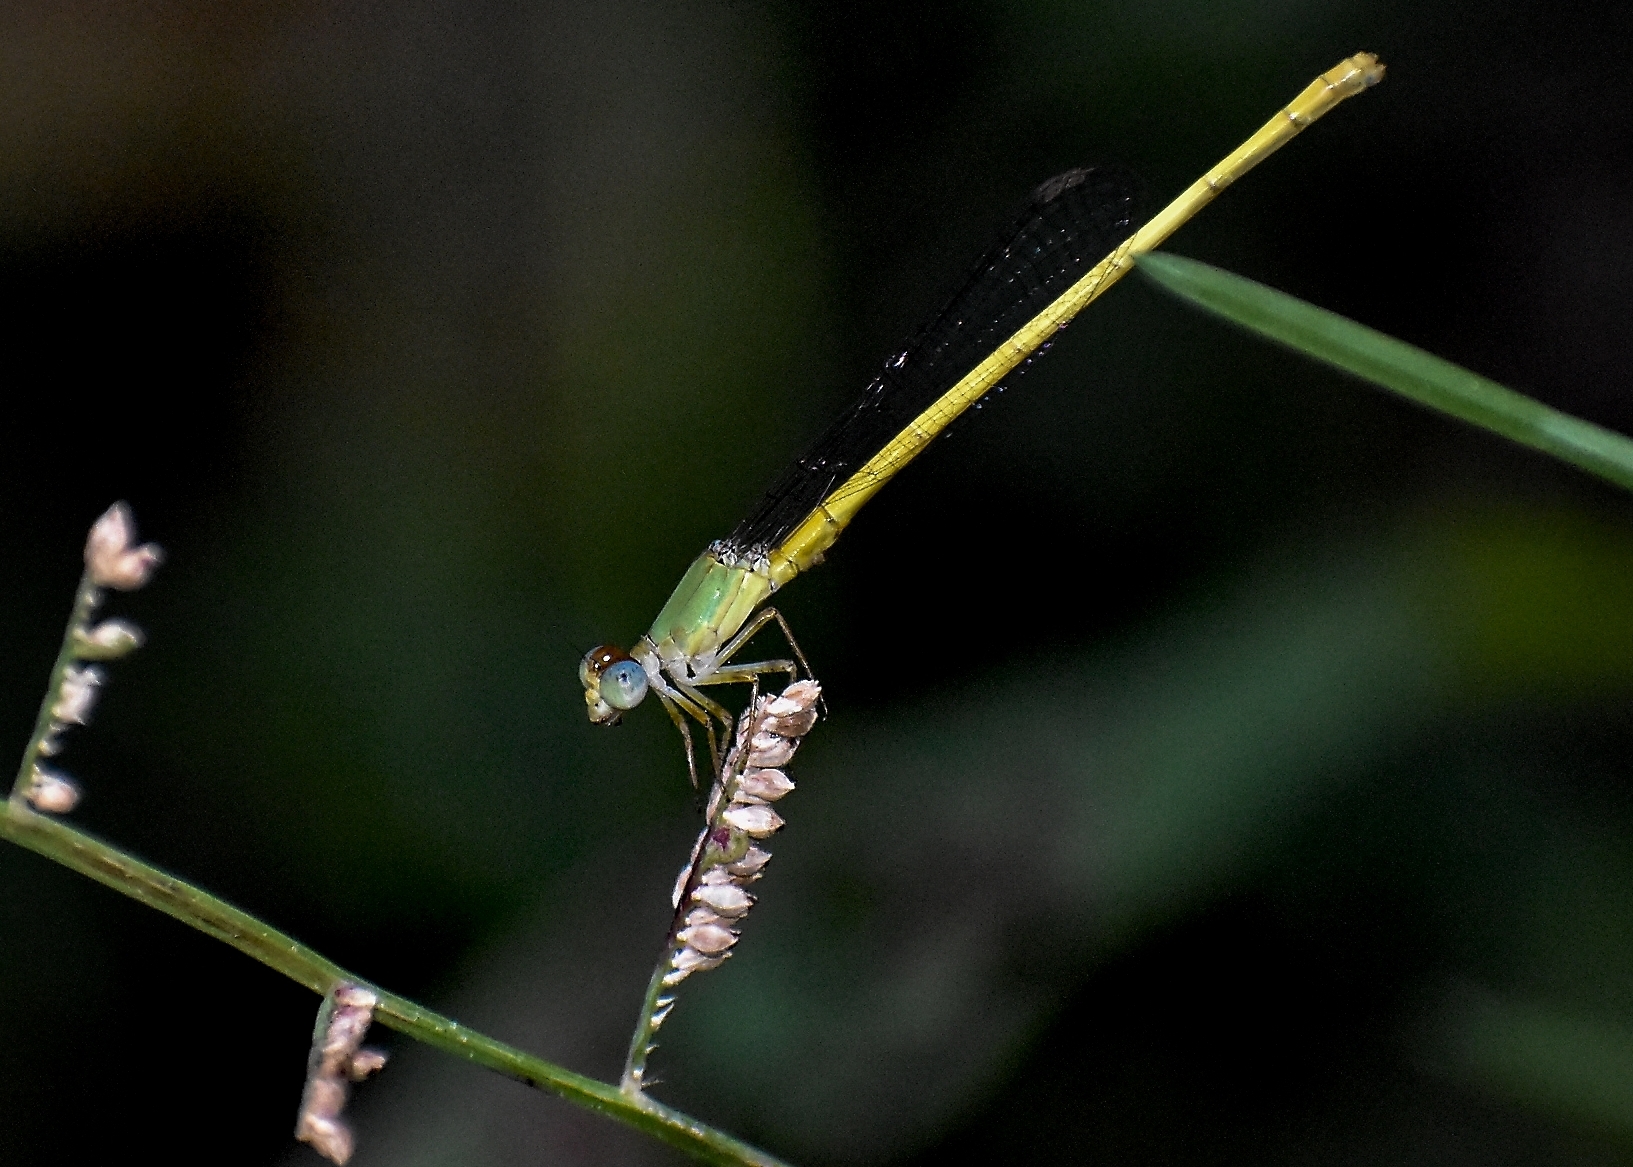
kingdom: Animalia
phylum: Arthropoda
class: Insecta
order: Odonata
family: Coenagrionidae
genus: Ceriagrion
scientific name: Ceriagrion coromandelianum
